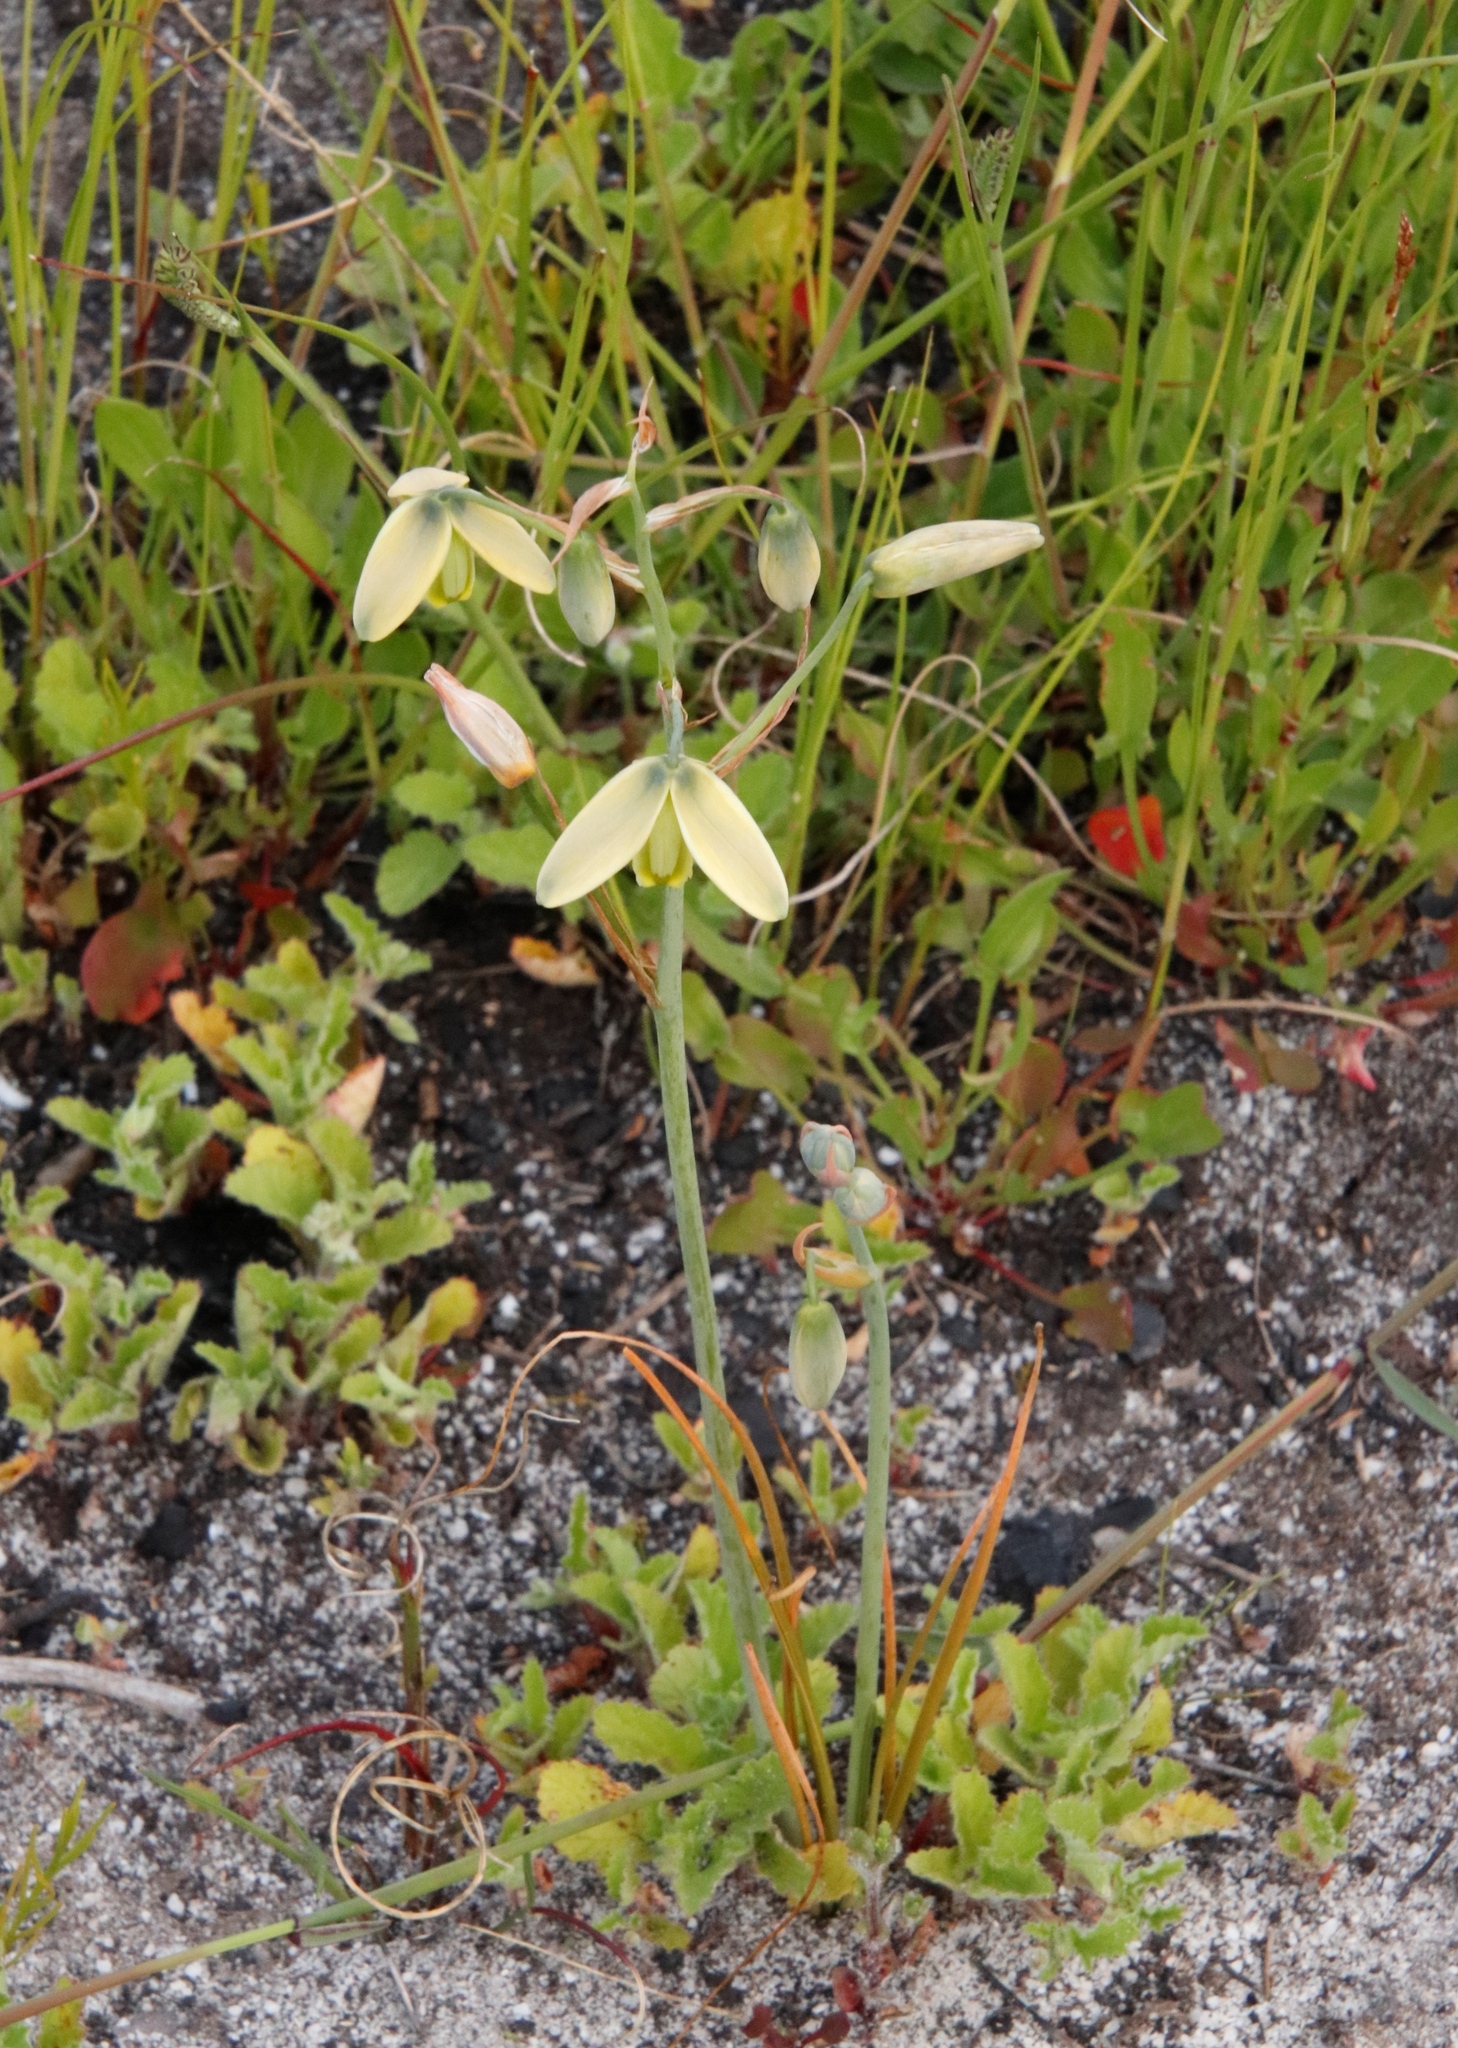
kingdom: Plantae
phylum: Tracheophyta
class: Liliopsida
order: Asparagales
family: Asparagaceae
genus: Albuca
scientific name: Albuca cooperi
